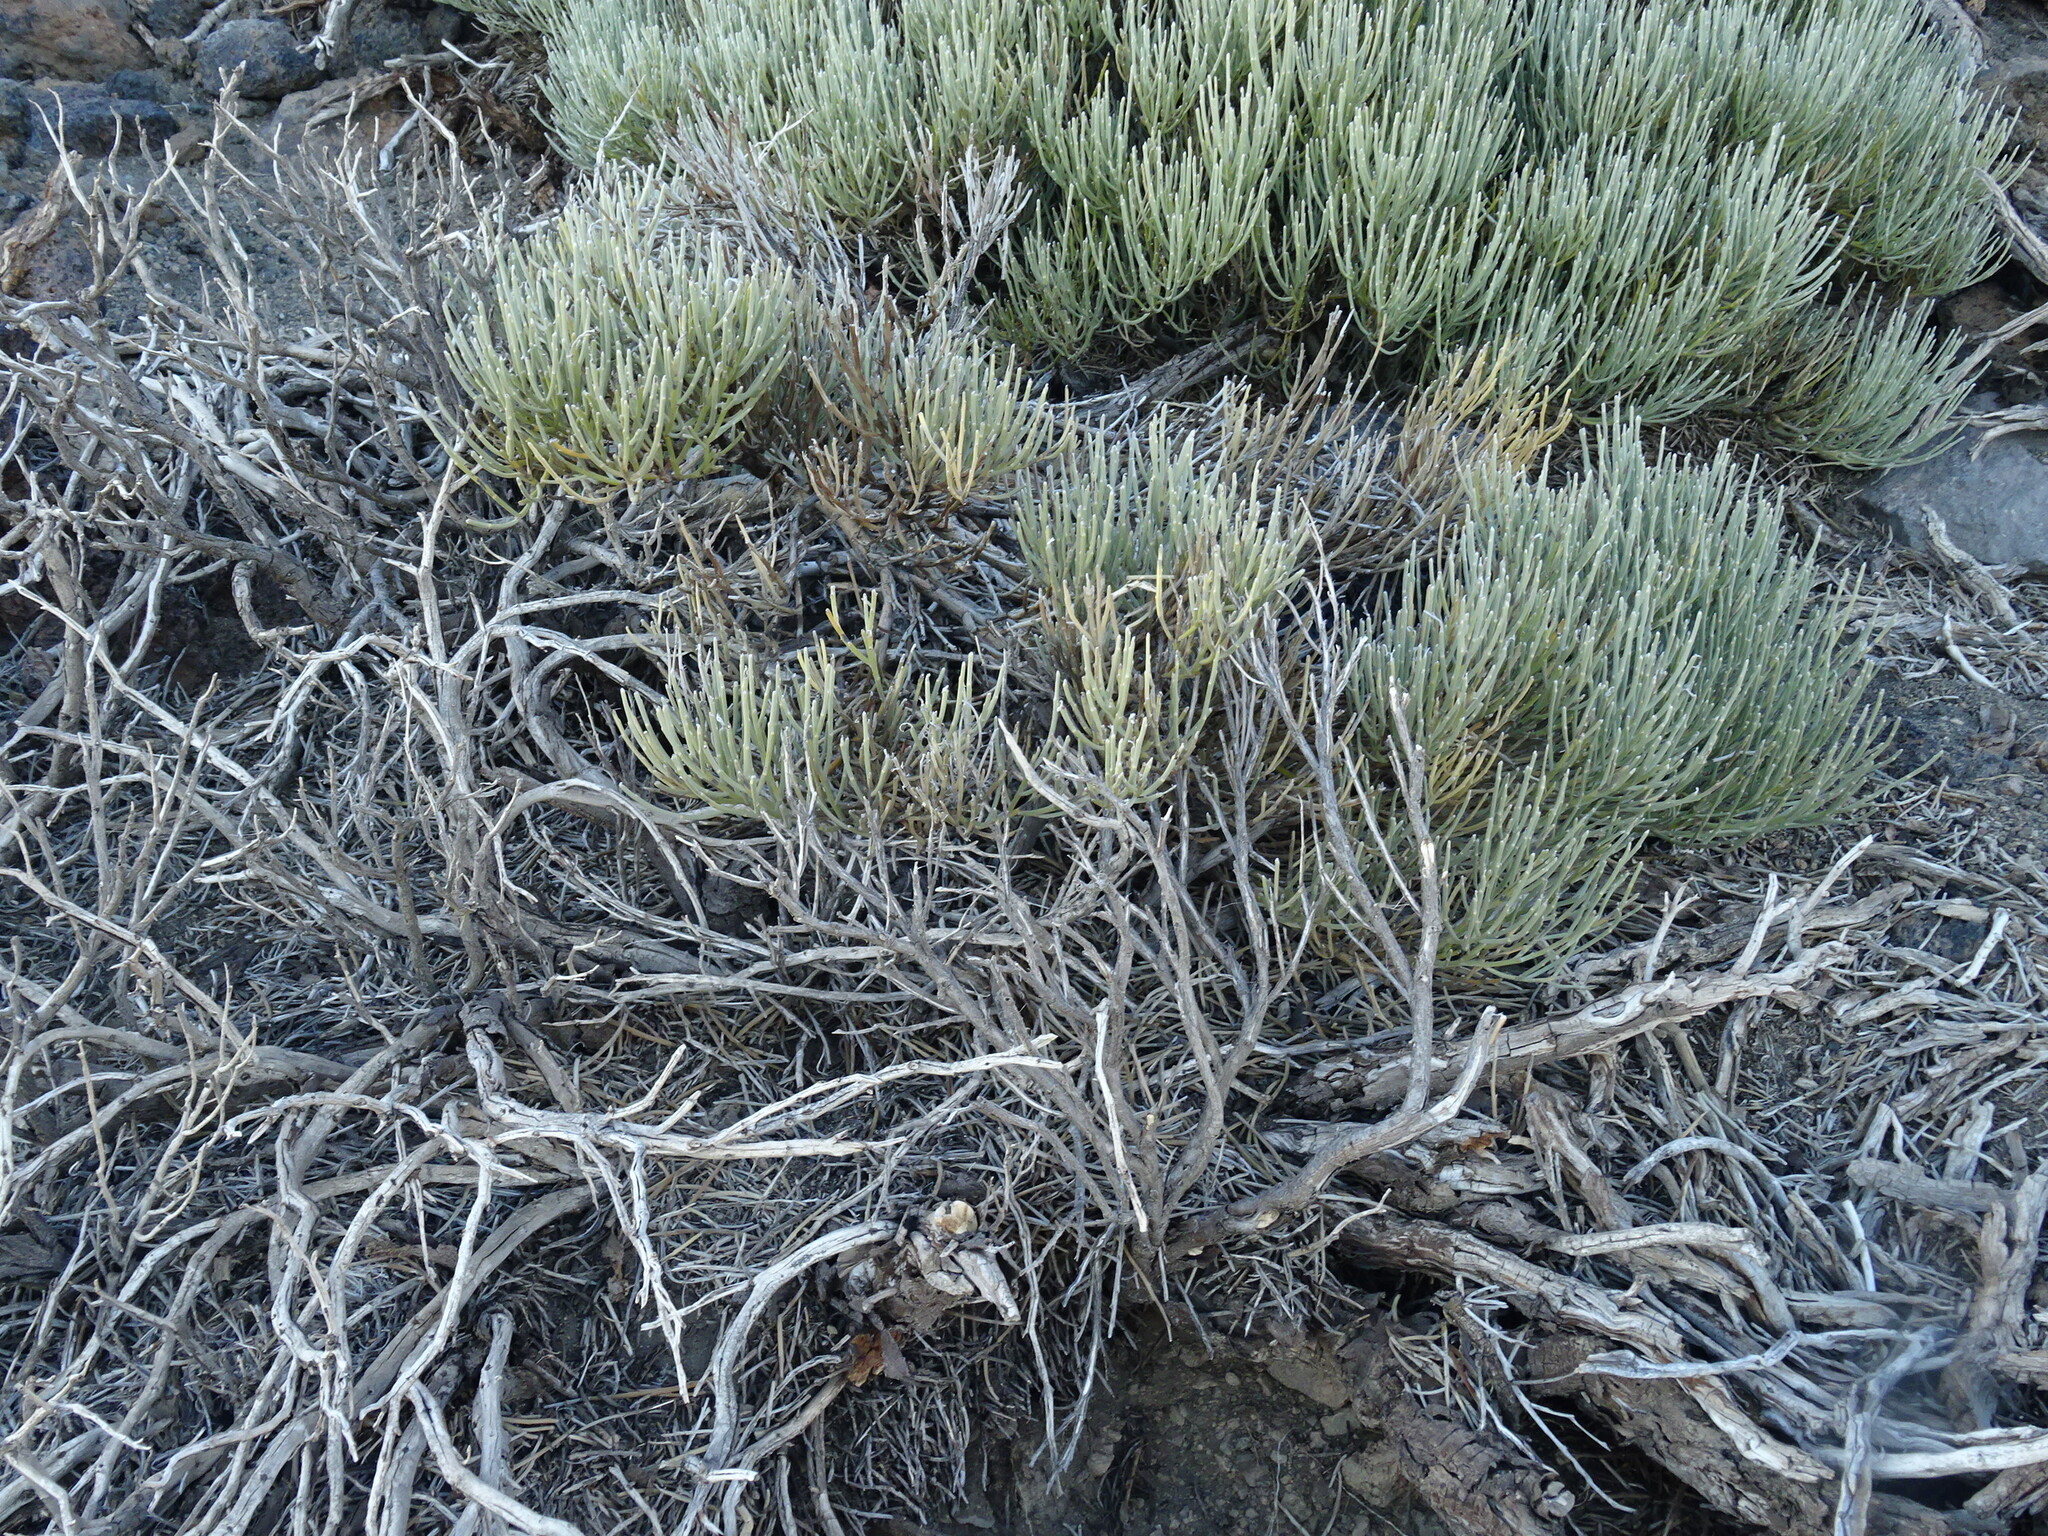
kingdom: Plantae
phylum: Tracheophyta
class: Magnoliopsida
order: Fabales
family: Fabaceae
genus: Cytisus
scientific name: Cytisus supranubius
